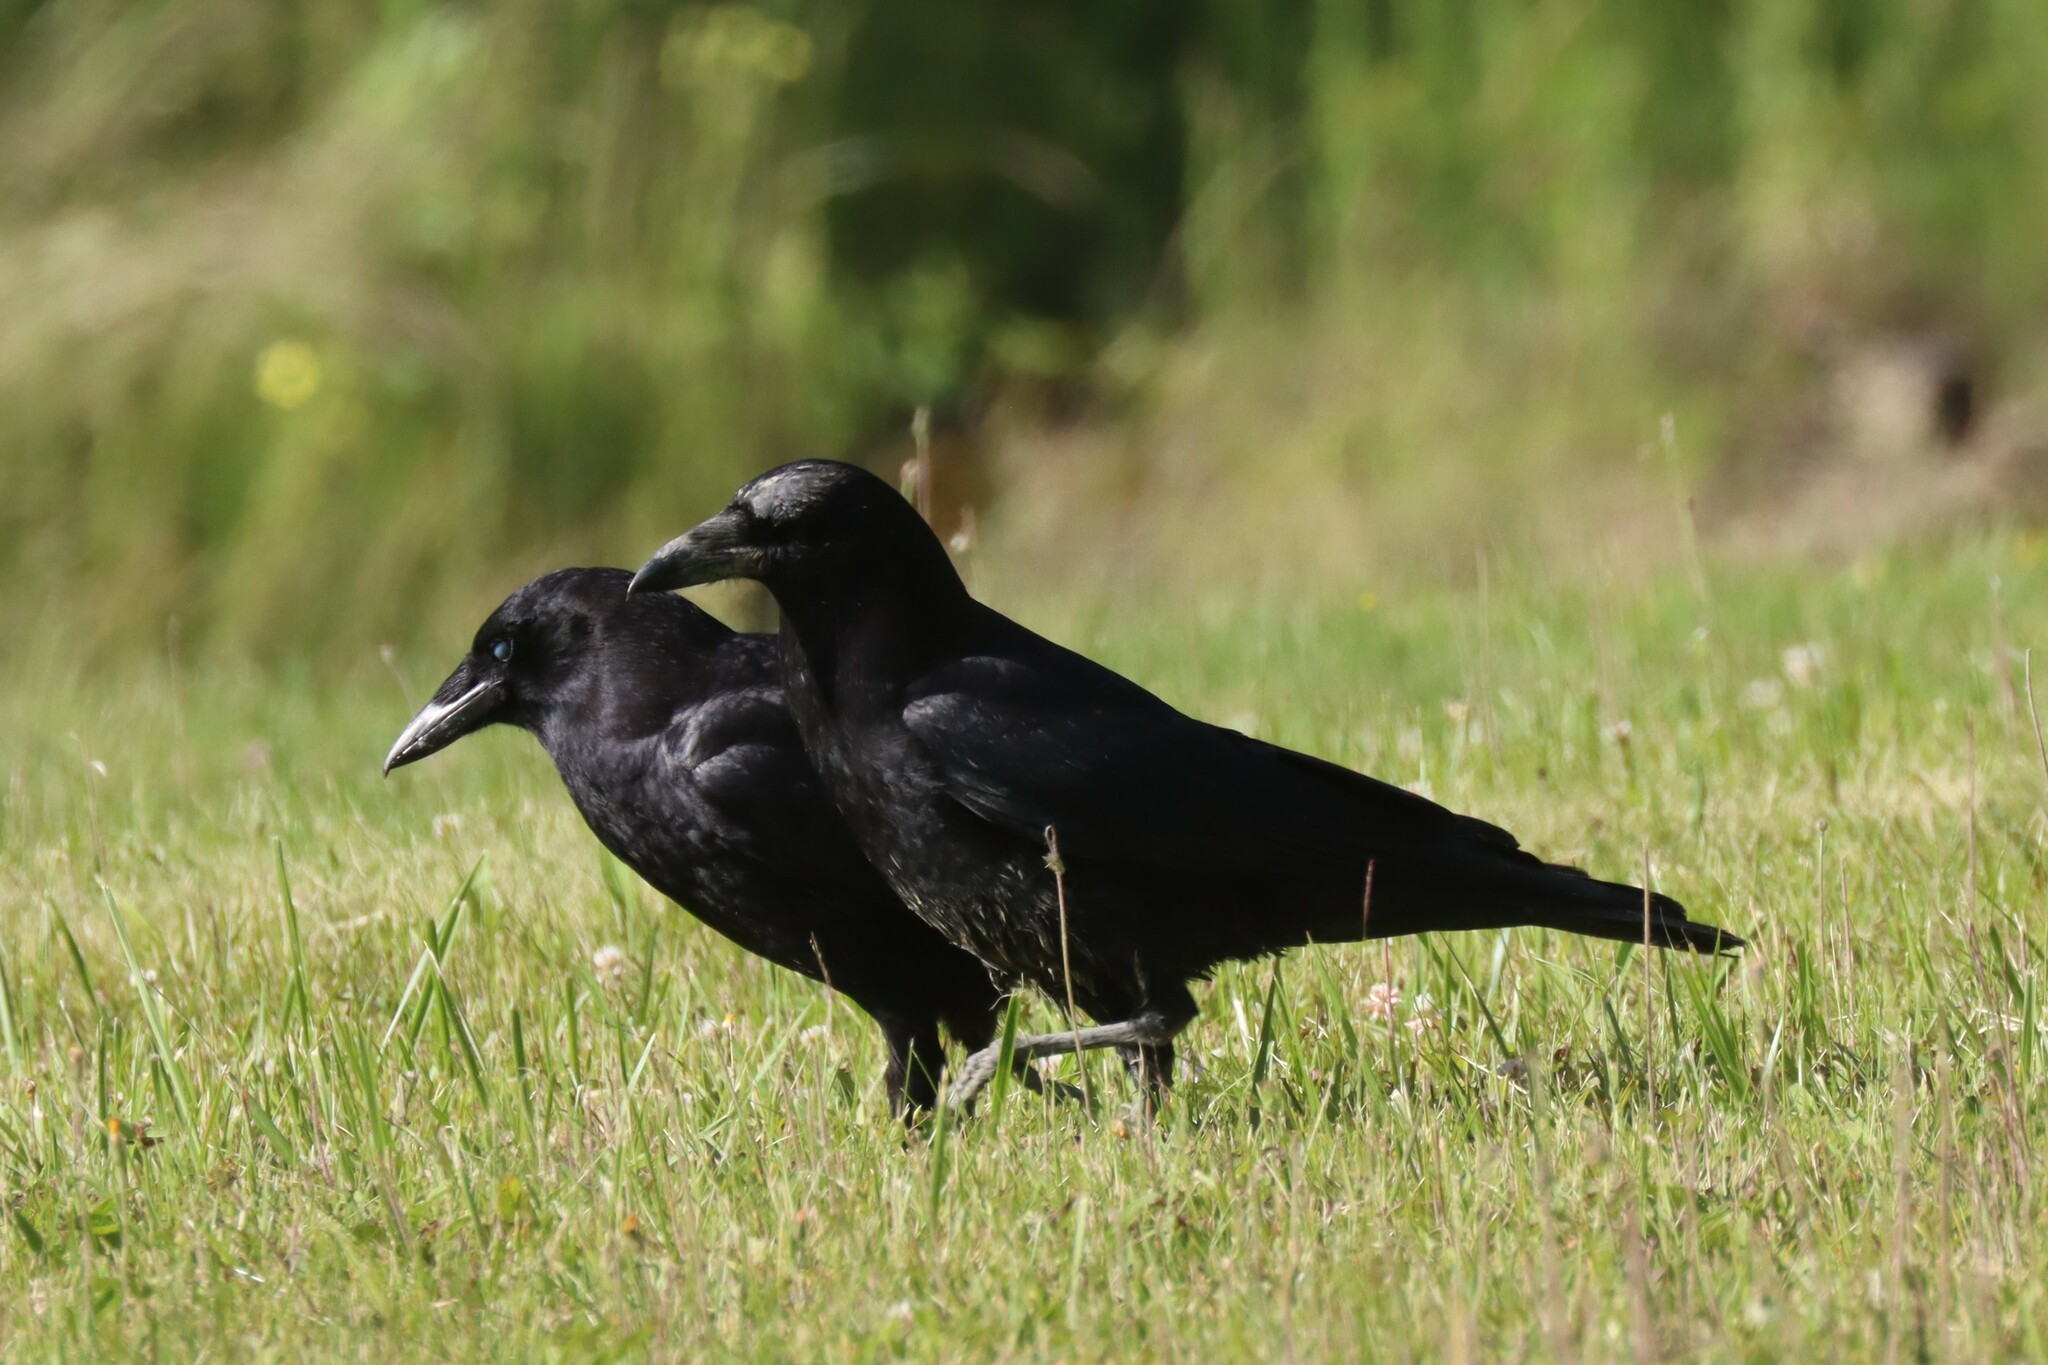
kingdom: Animalia
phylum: Chordata
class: Aves
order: Passeriformes
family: Corvidae
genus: Corvus
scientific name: Corvus brachyrhynchos
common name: American crow
